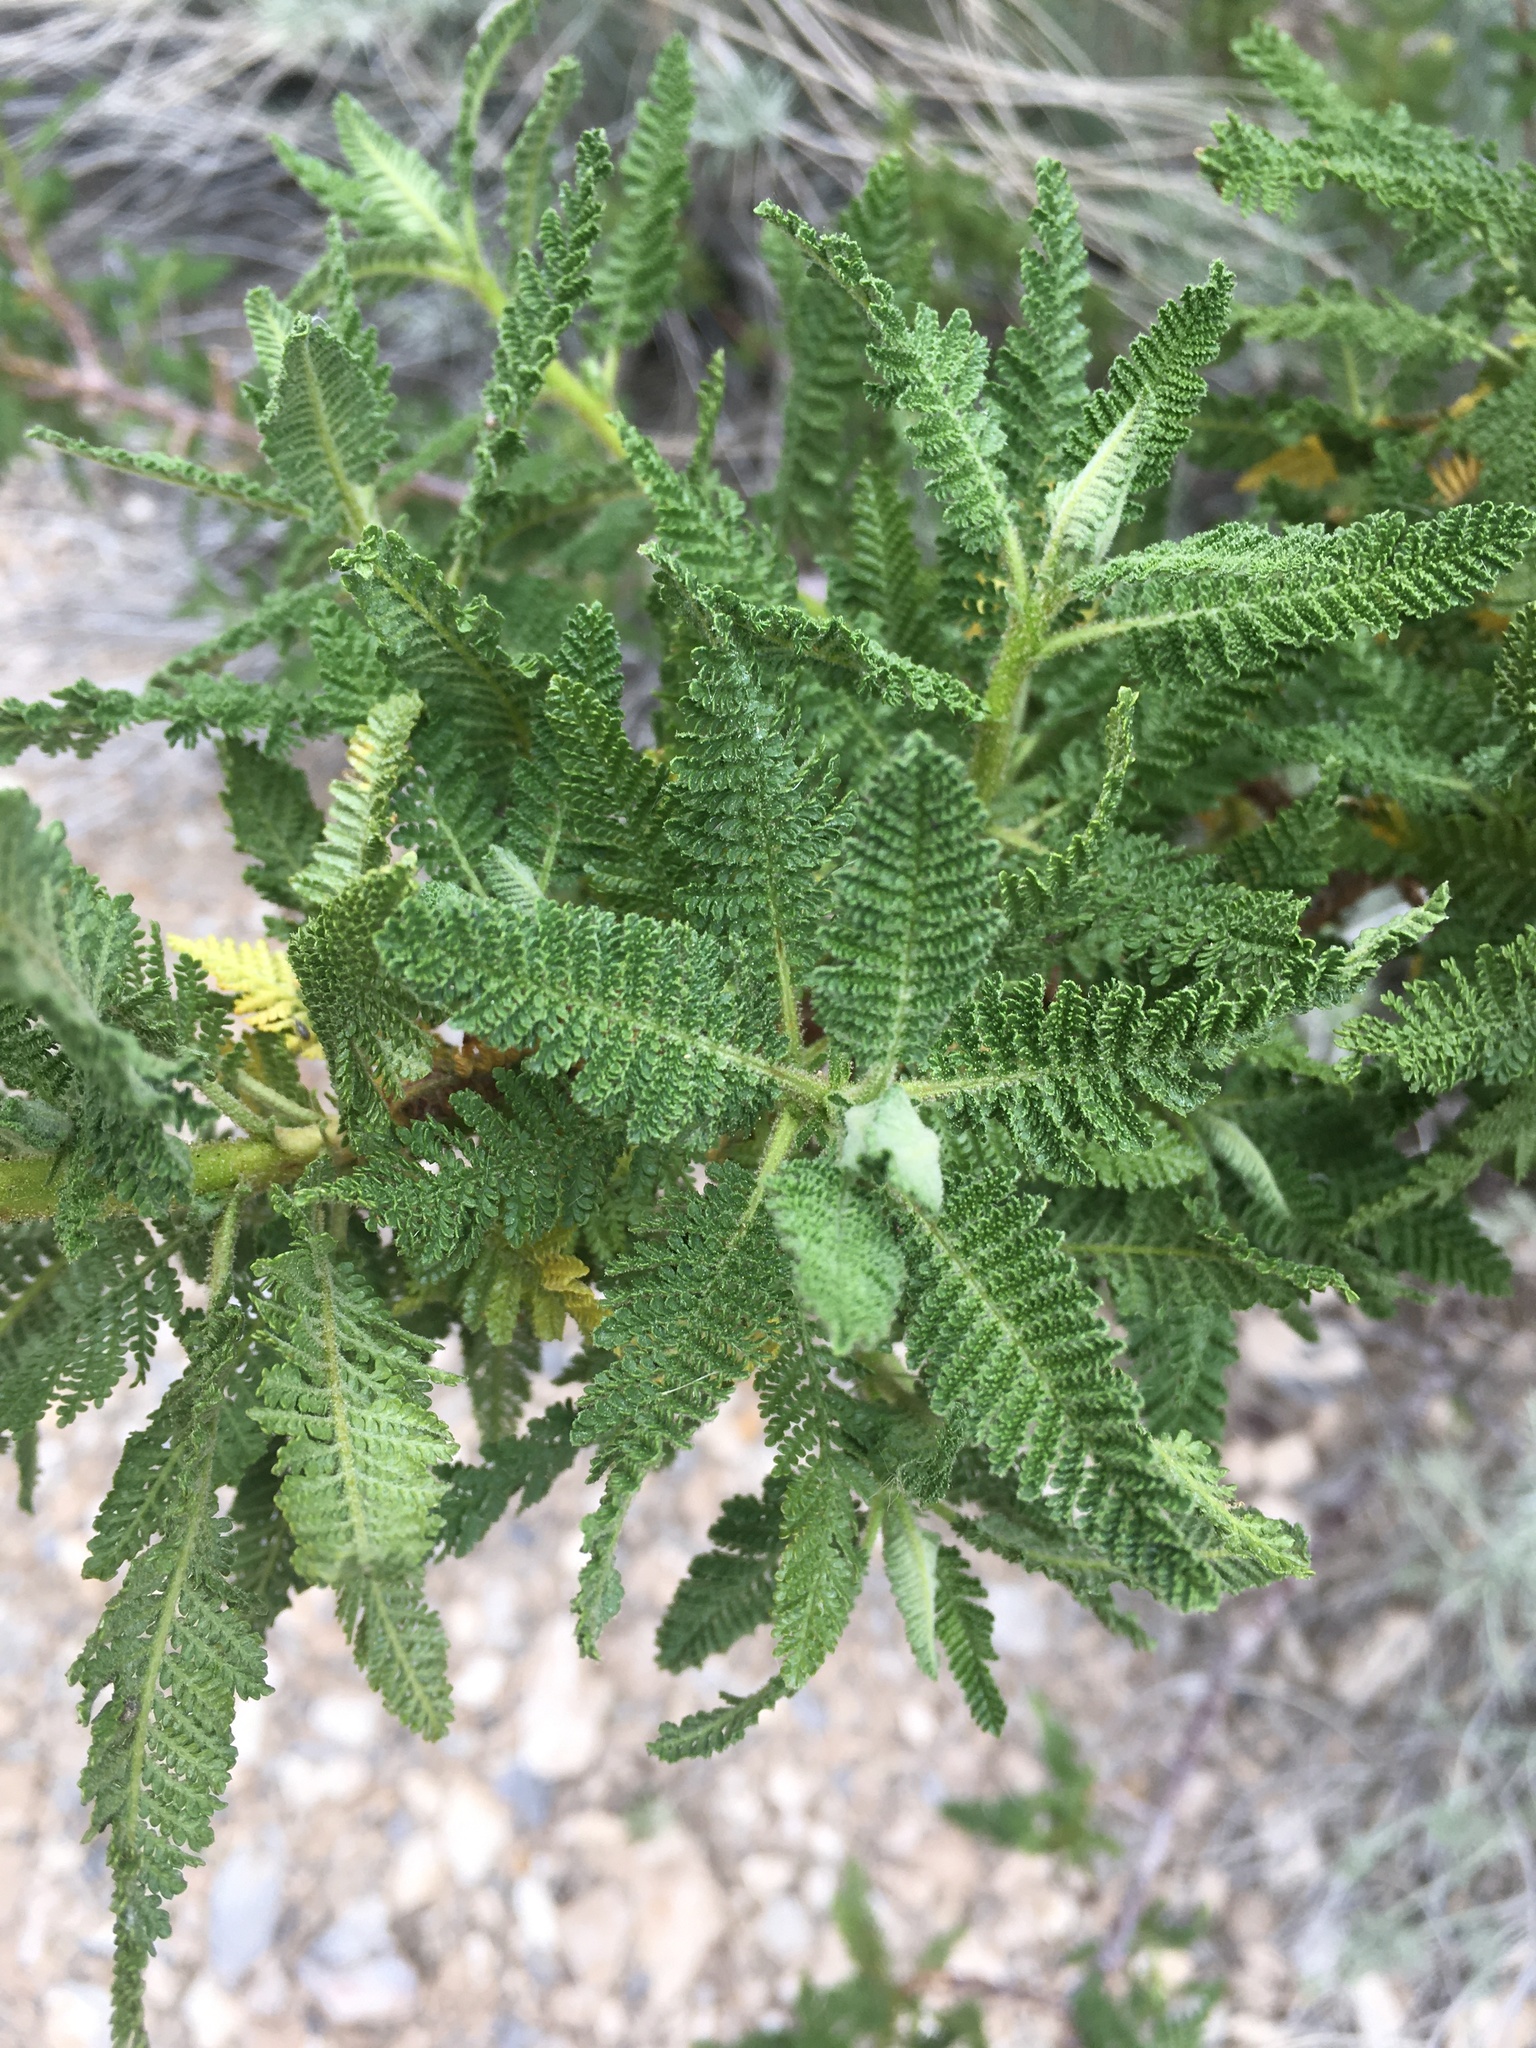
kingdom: Plantae
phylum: Tracheophyta
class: Magnoliopsida
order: Rosales
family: Rosaceae
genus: Chamaebatiaria
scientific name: Chamaebatiaria millefolium
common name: Fernbush
